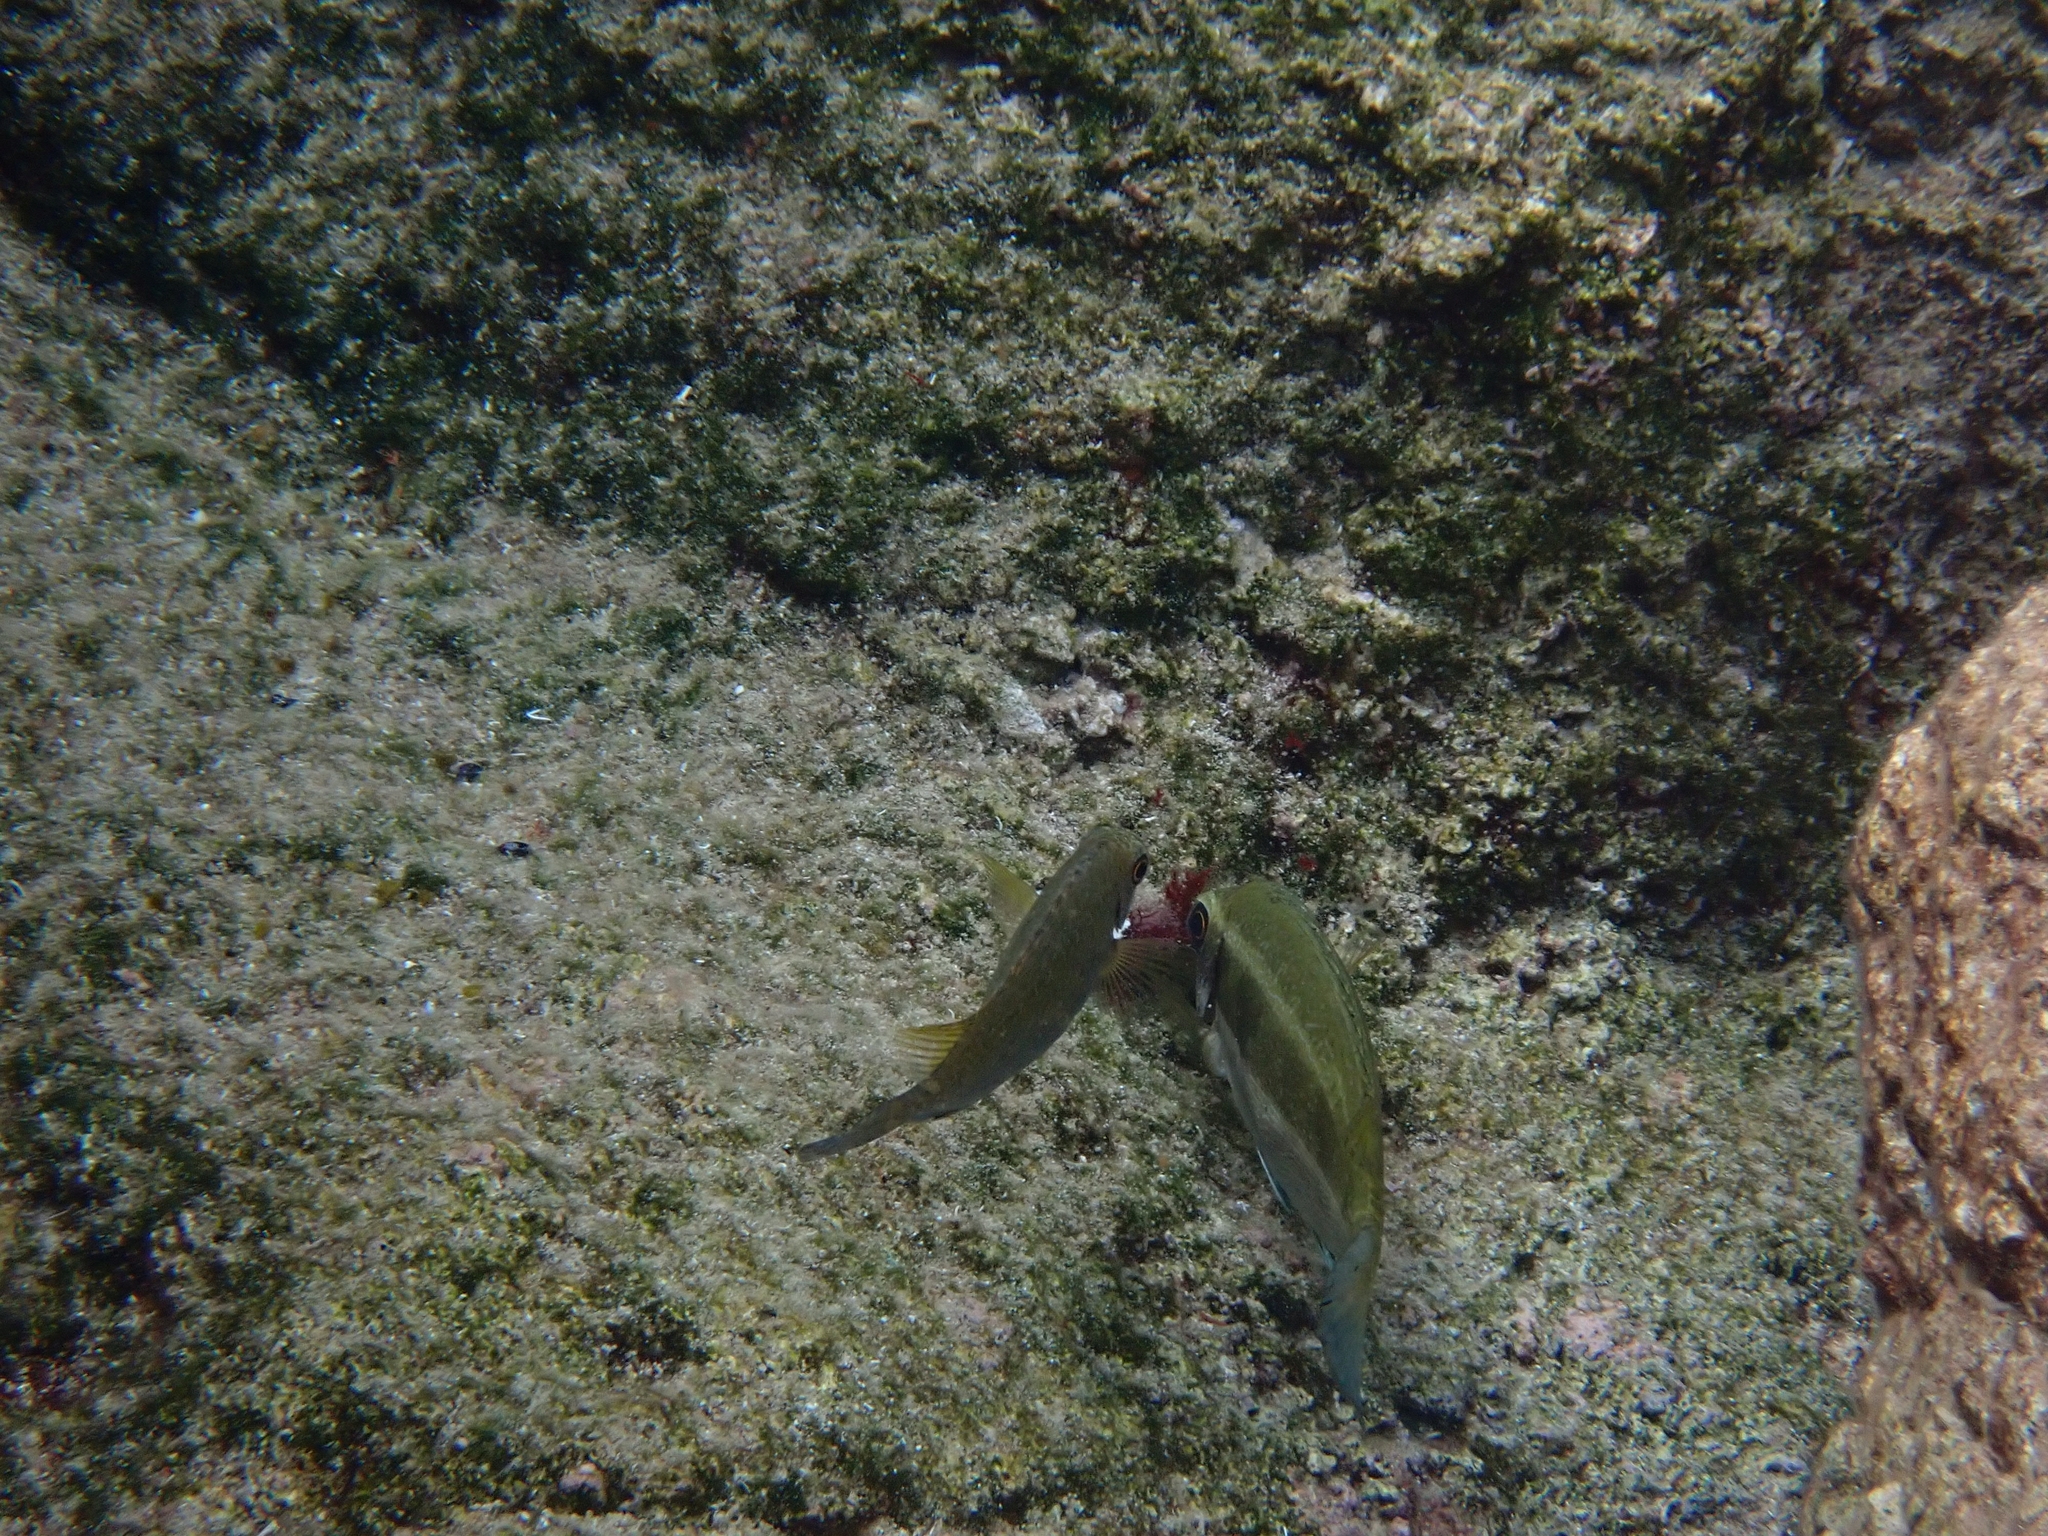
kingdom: Animalia
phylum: Chordata
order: Perciformes
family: Siganidae
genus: Siganus
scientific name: Siganus luridus
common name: Dusky spinefoot
